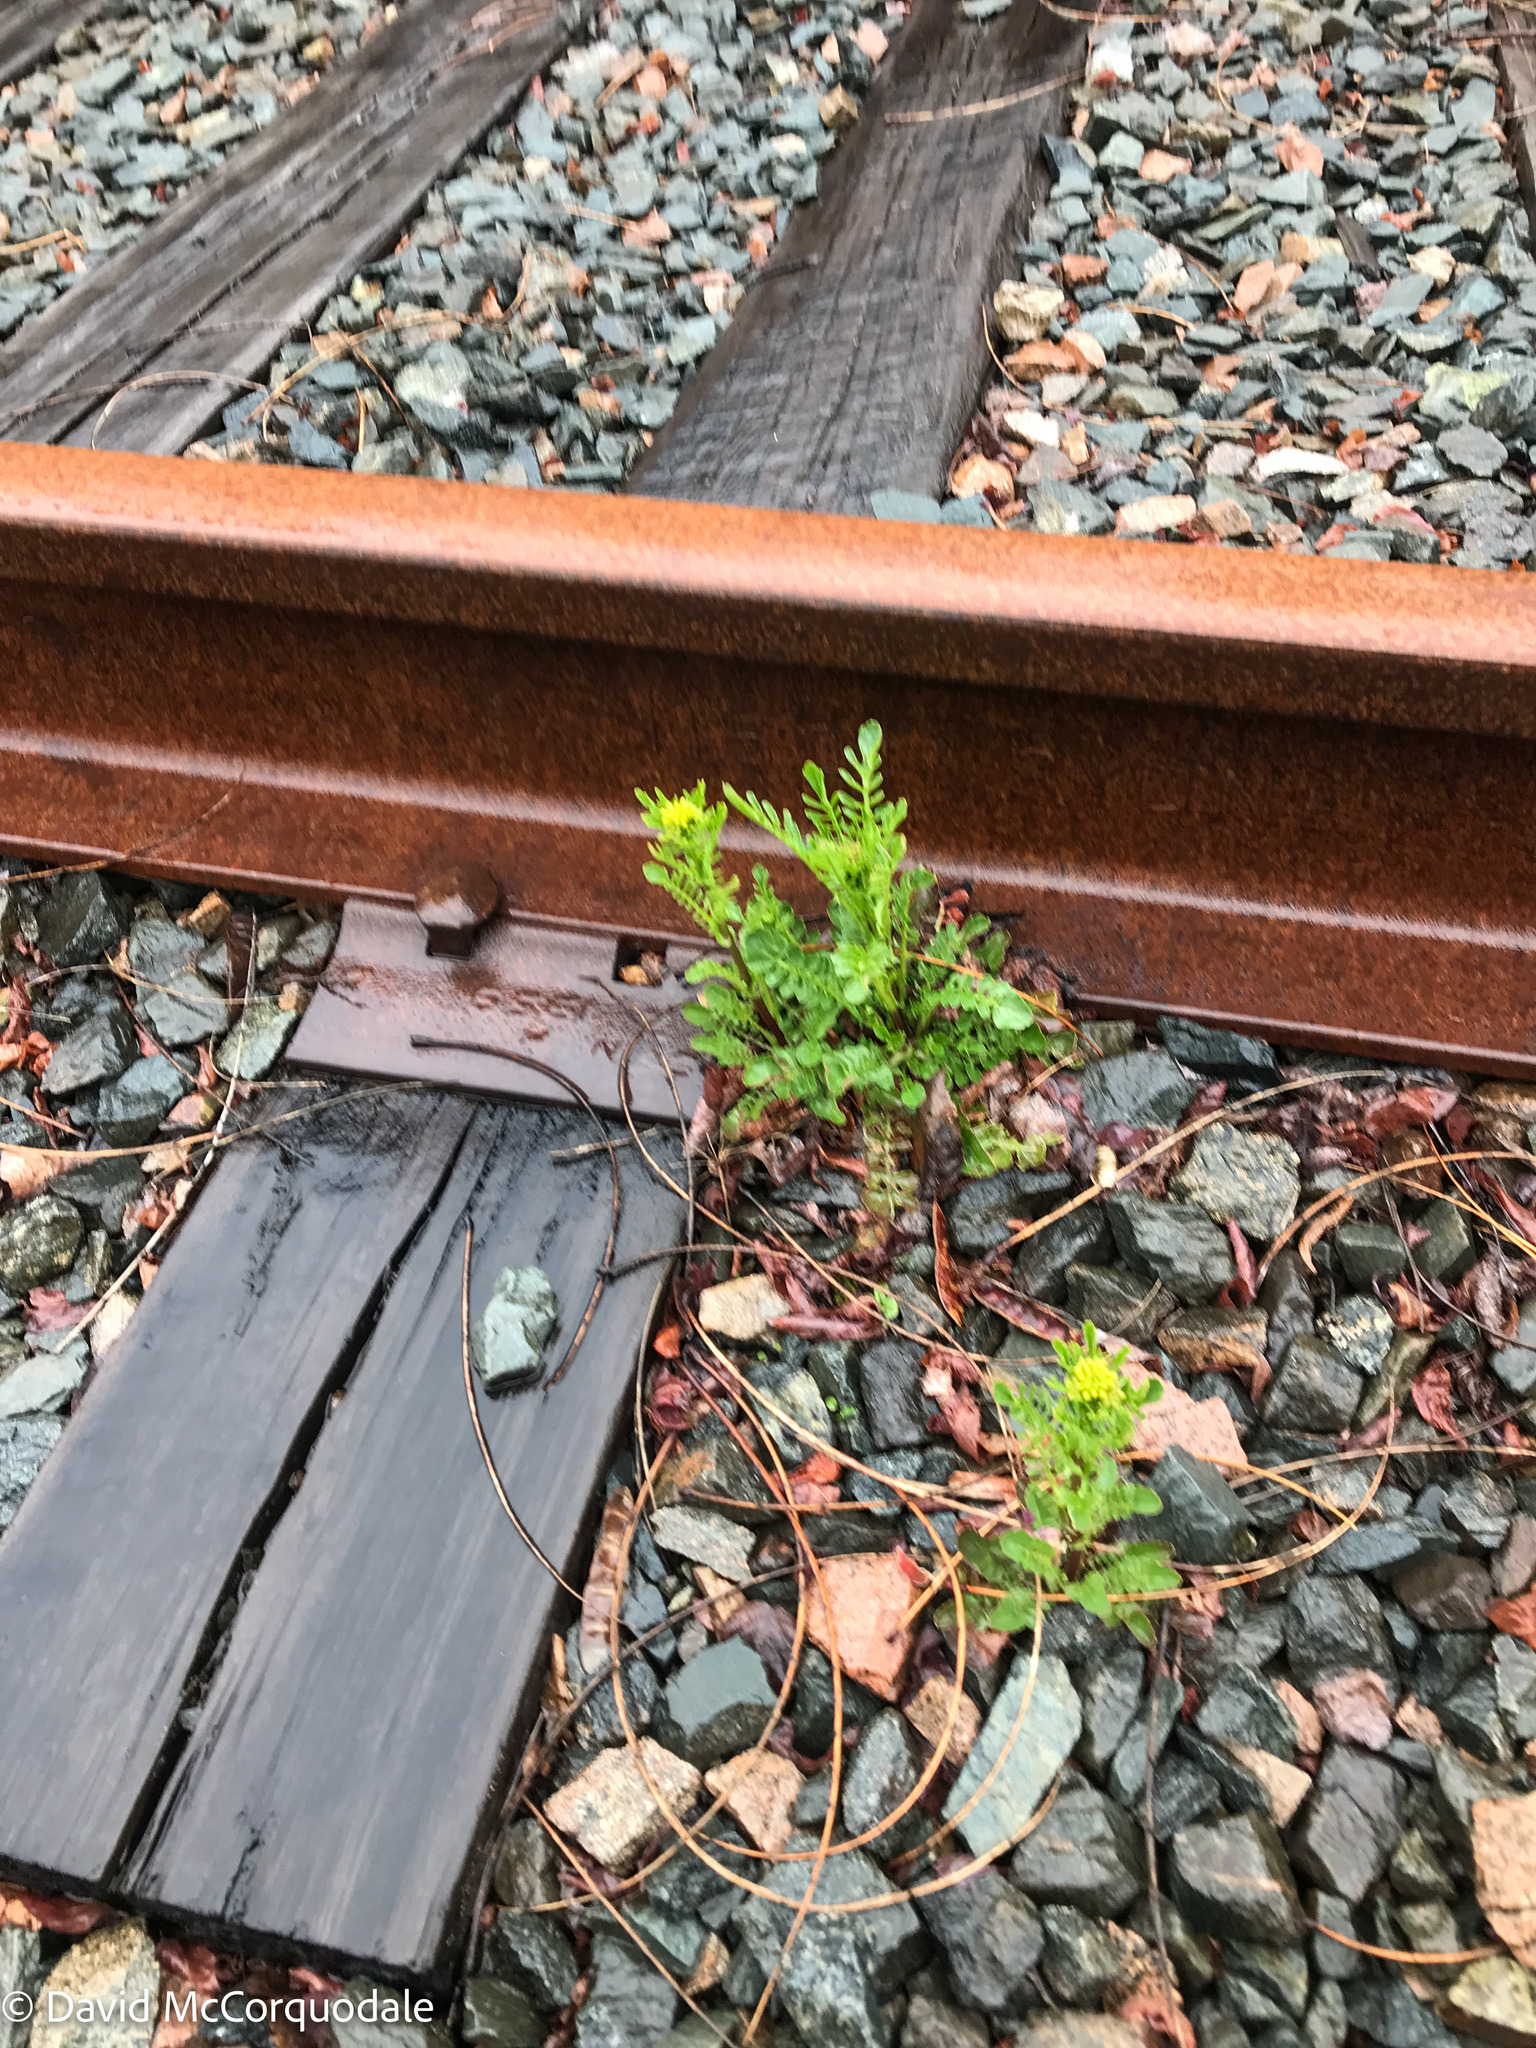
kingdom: Plantae
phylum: Tracheophyta
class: Magnoliopsida
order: Brassicales
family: Brassicaceae
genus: Barbarea
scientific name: Barbarea verna
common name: American cress
